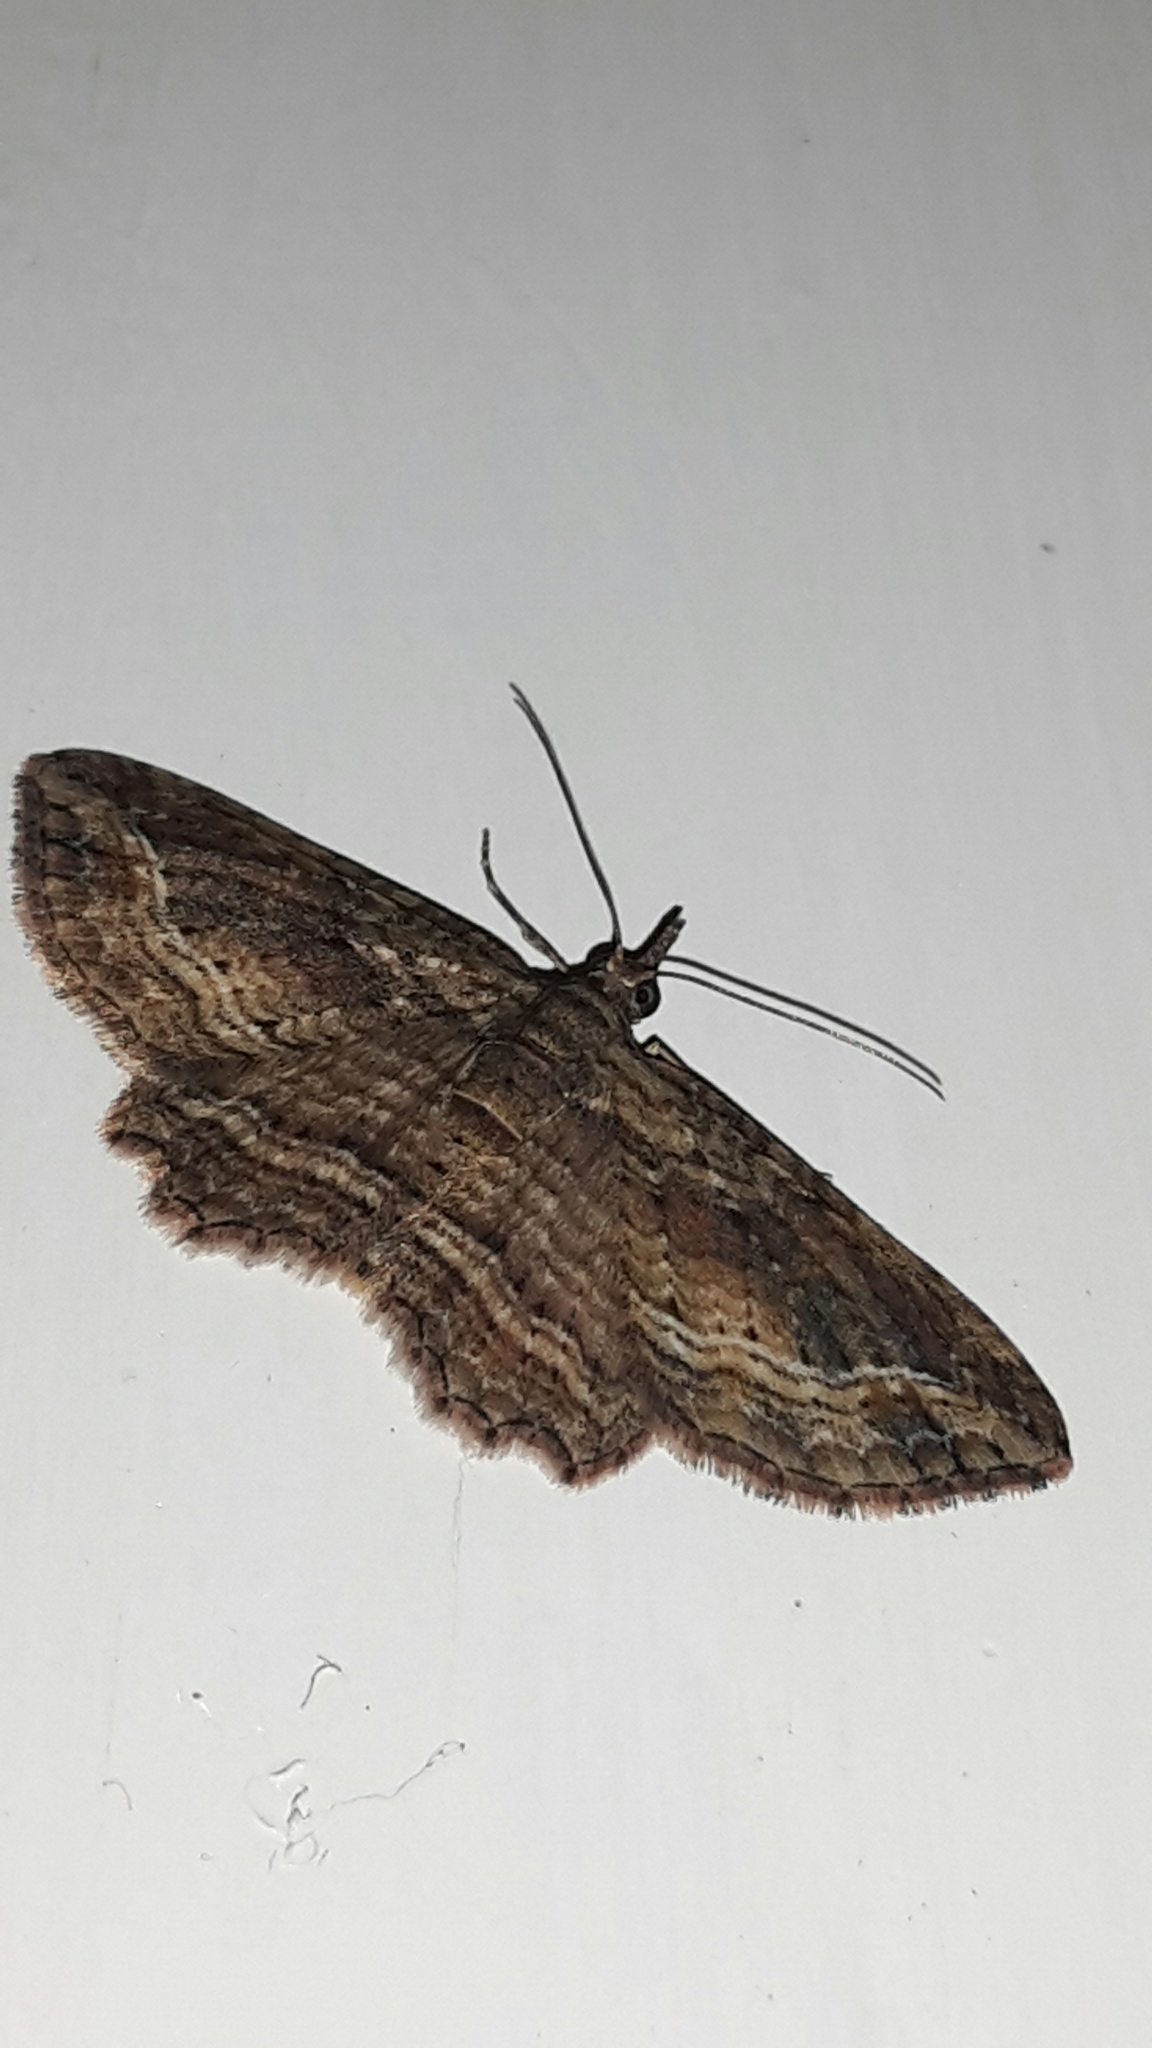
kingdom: Animalia
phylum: Arthropoda
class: Insecta
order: Lepidoptera
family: Geometridae
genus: Chloroclystis
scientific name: Chloroclystis filata
